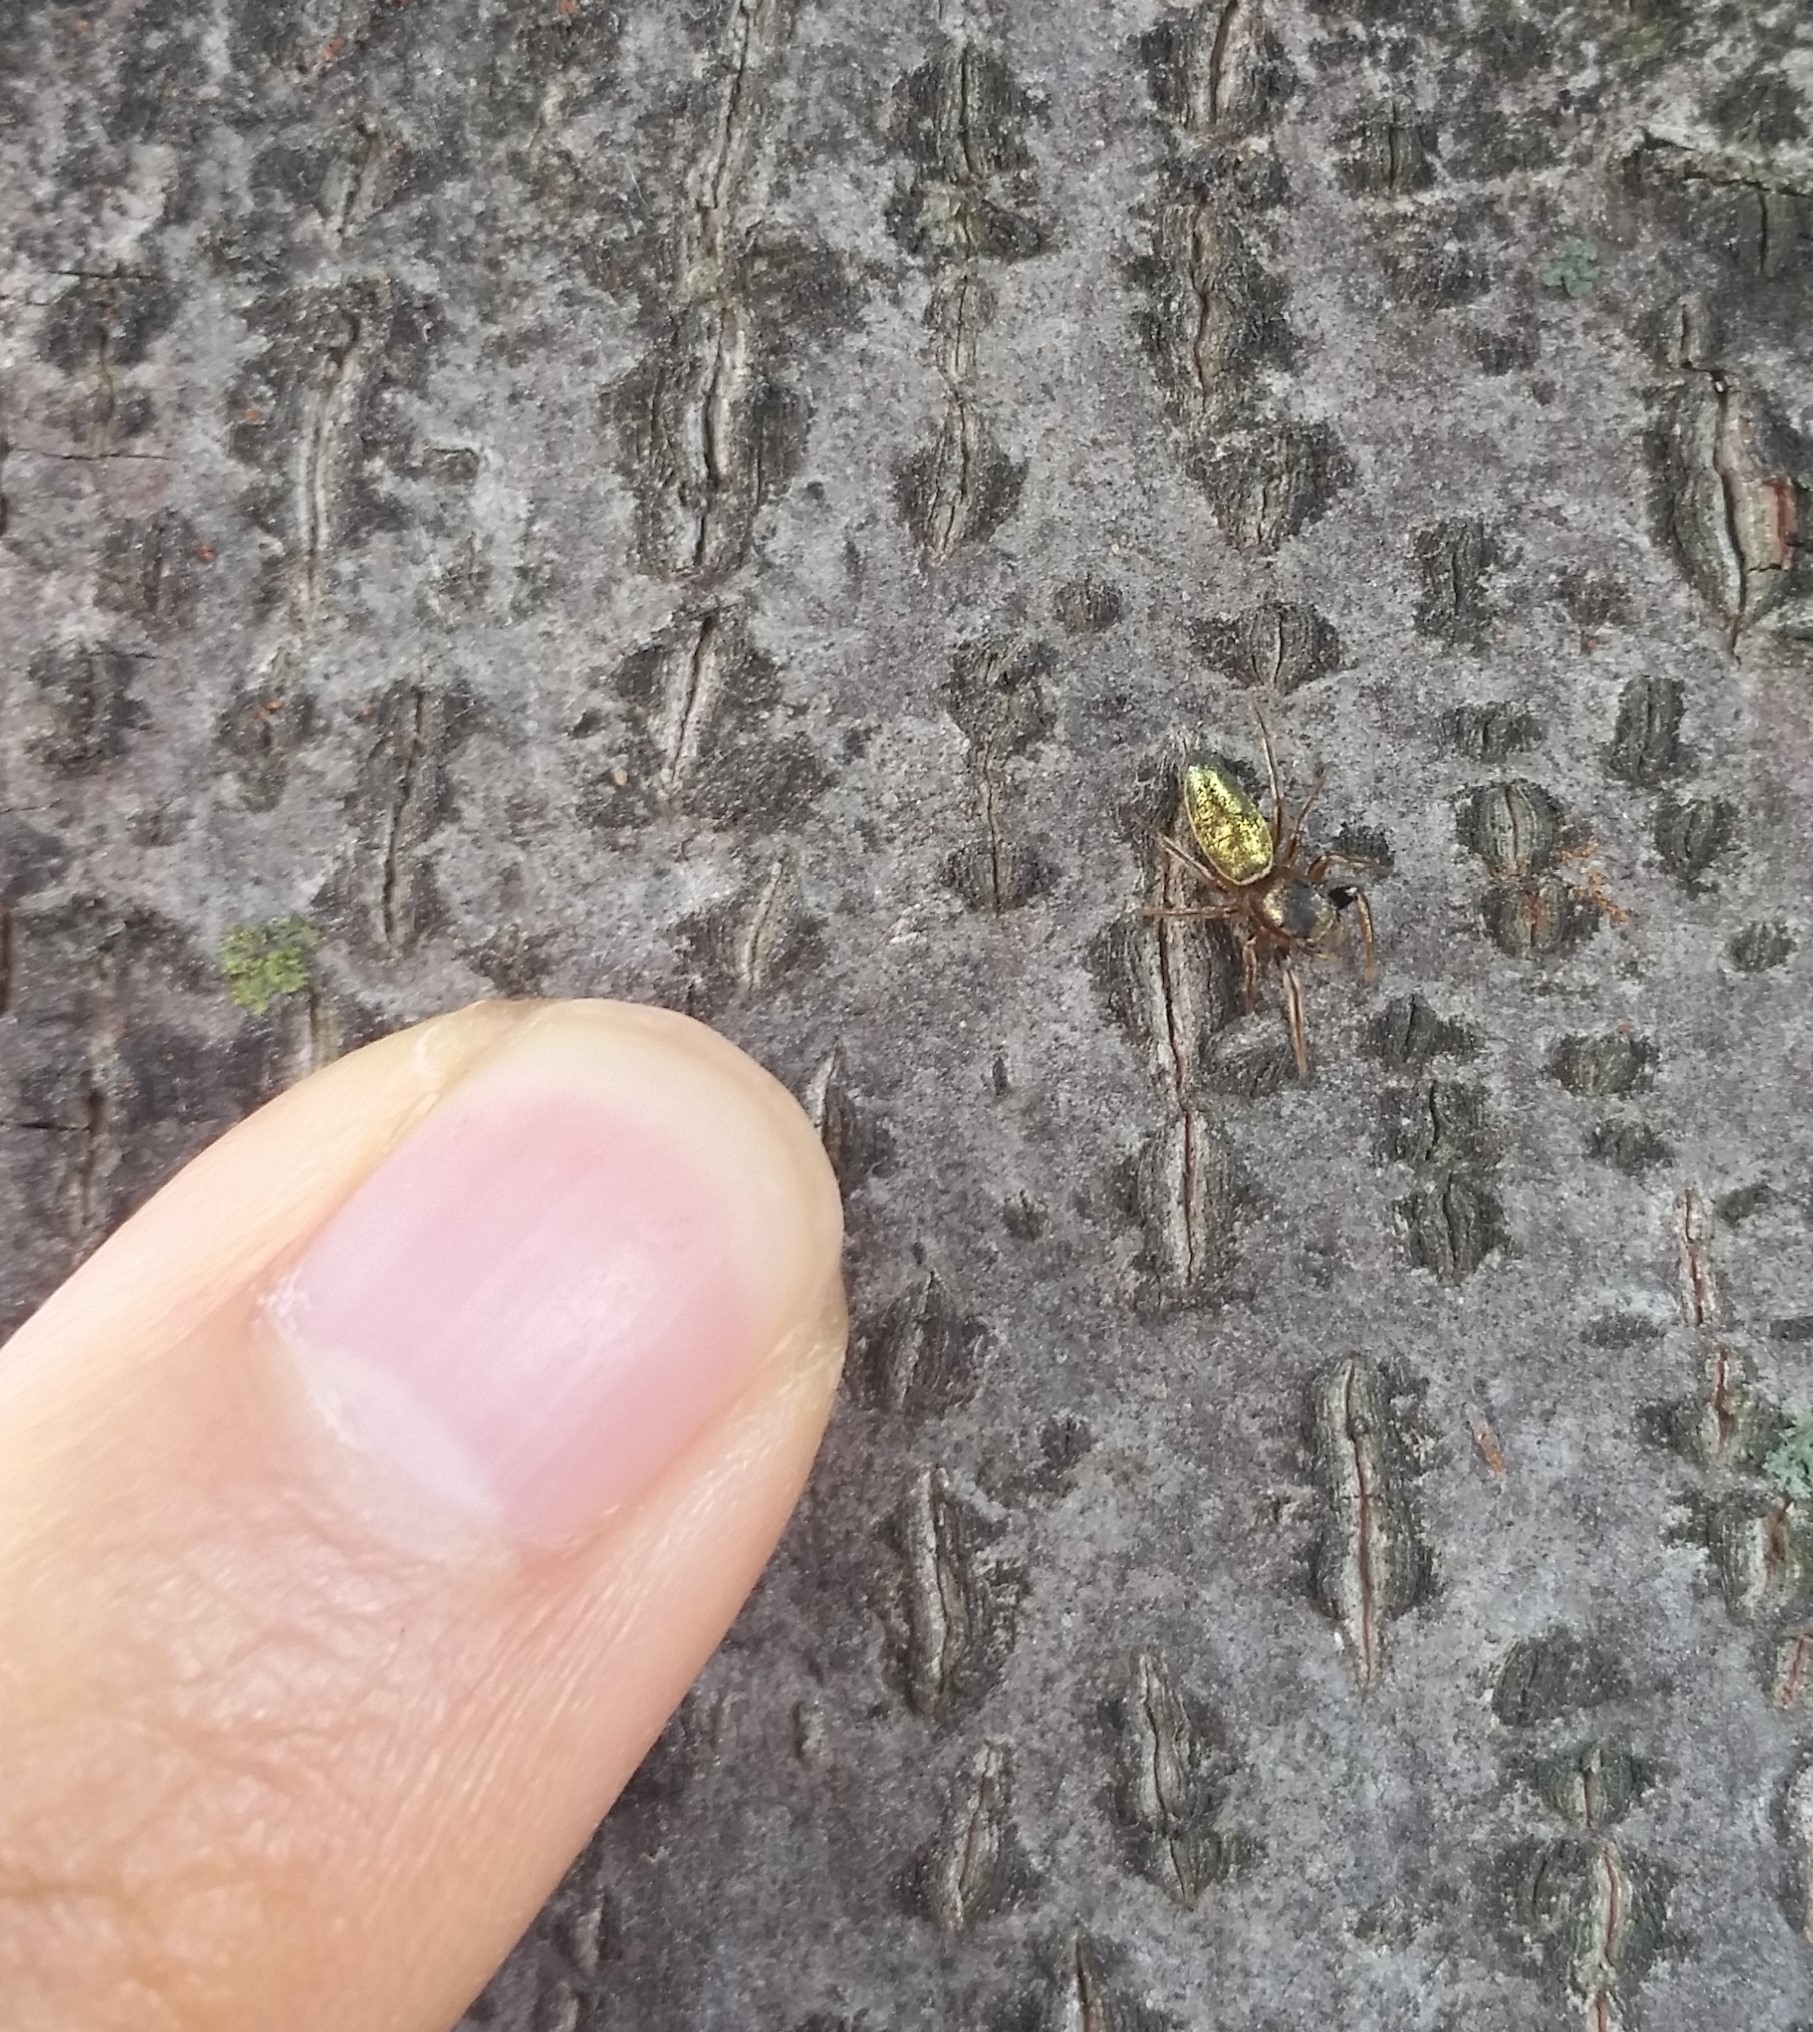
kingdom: Animalia
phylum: Arthropoda
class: Arachnida
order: Araneae
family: Salticidae
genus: Tutelina
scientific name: Tutelina elegans
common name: Thin-spined jumping spider
